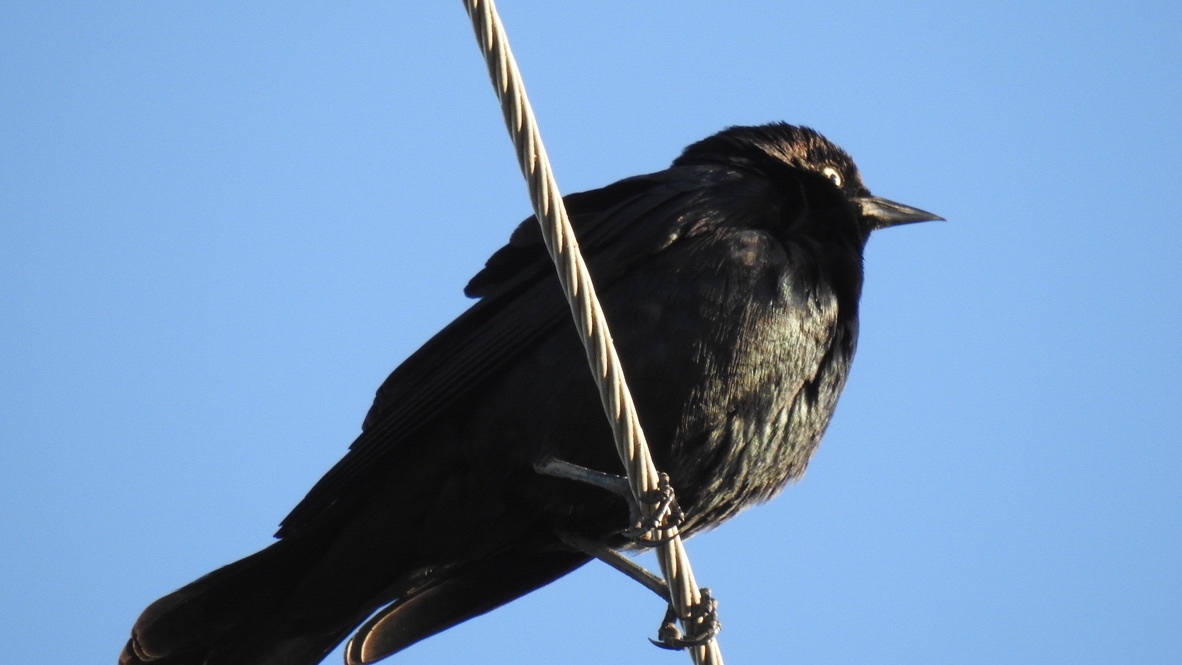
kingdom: Animalia
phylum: Chordata
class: Aves
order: Passeriformes
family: Icteridae
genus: Euphagus
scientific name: Euphagus cyanocephalus
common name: Brewer's blackbird
